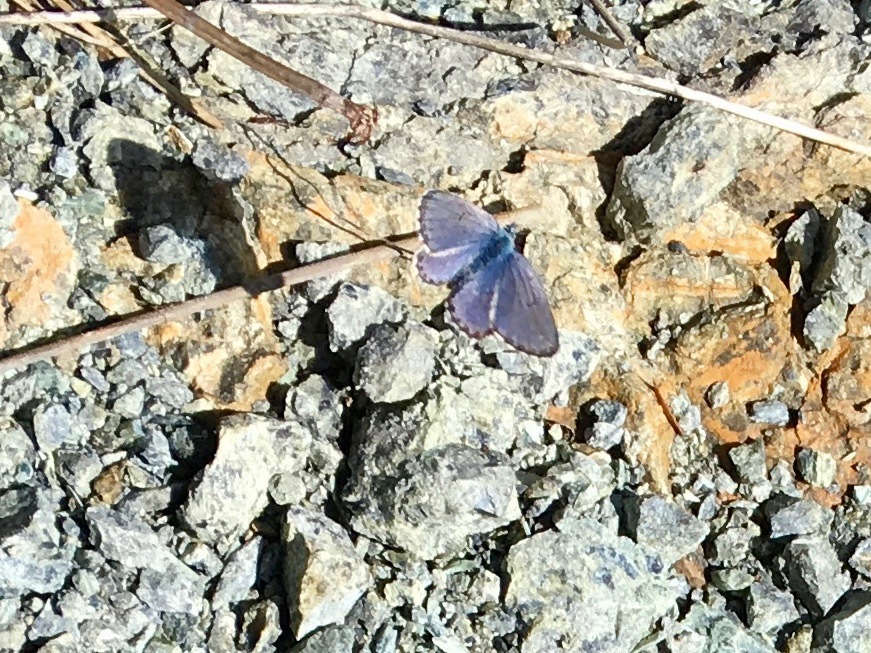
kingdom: Animalia
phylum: Arthropoda
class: Insecta
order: Lepidoptera
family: Lycaenidae
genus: Pseudophilotes
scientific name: Pseudophilotes baton
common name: Baton blue
